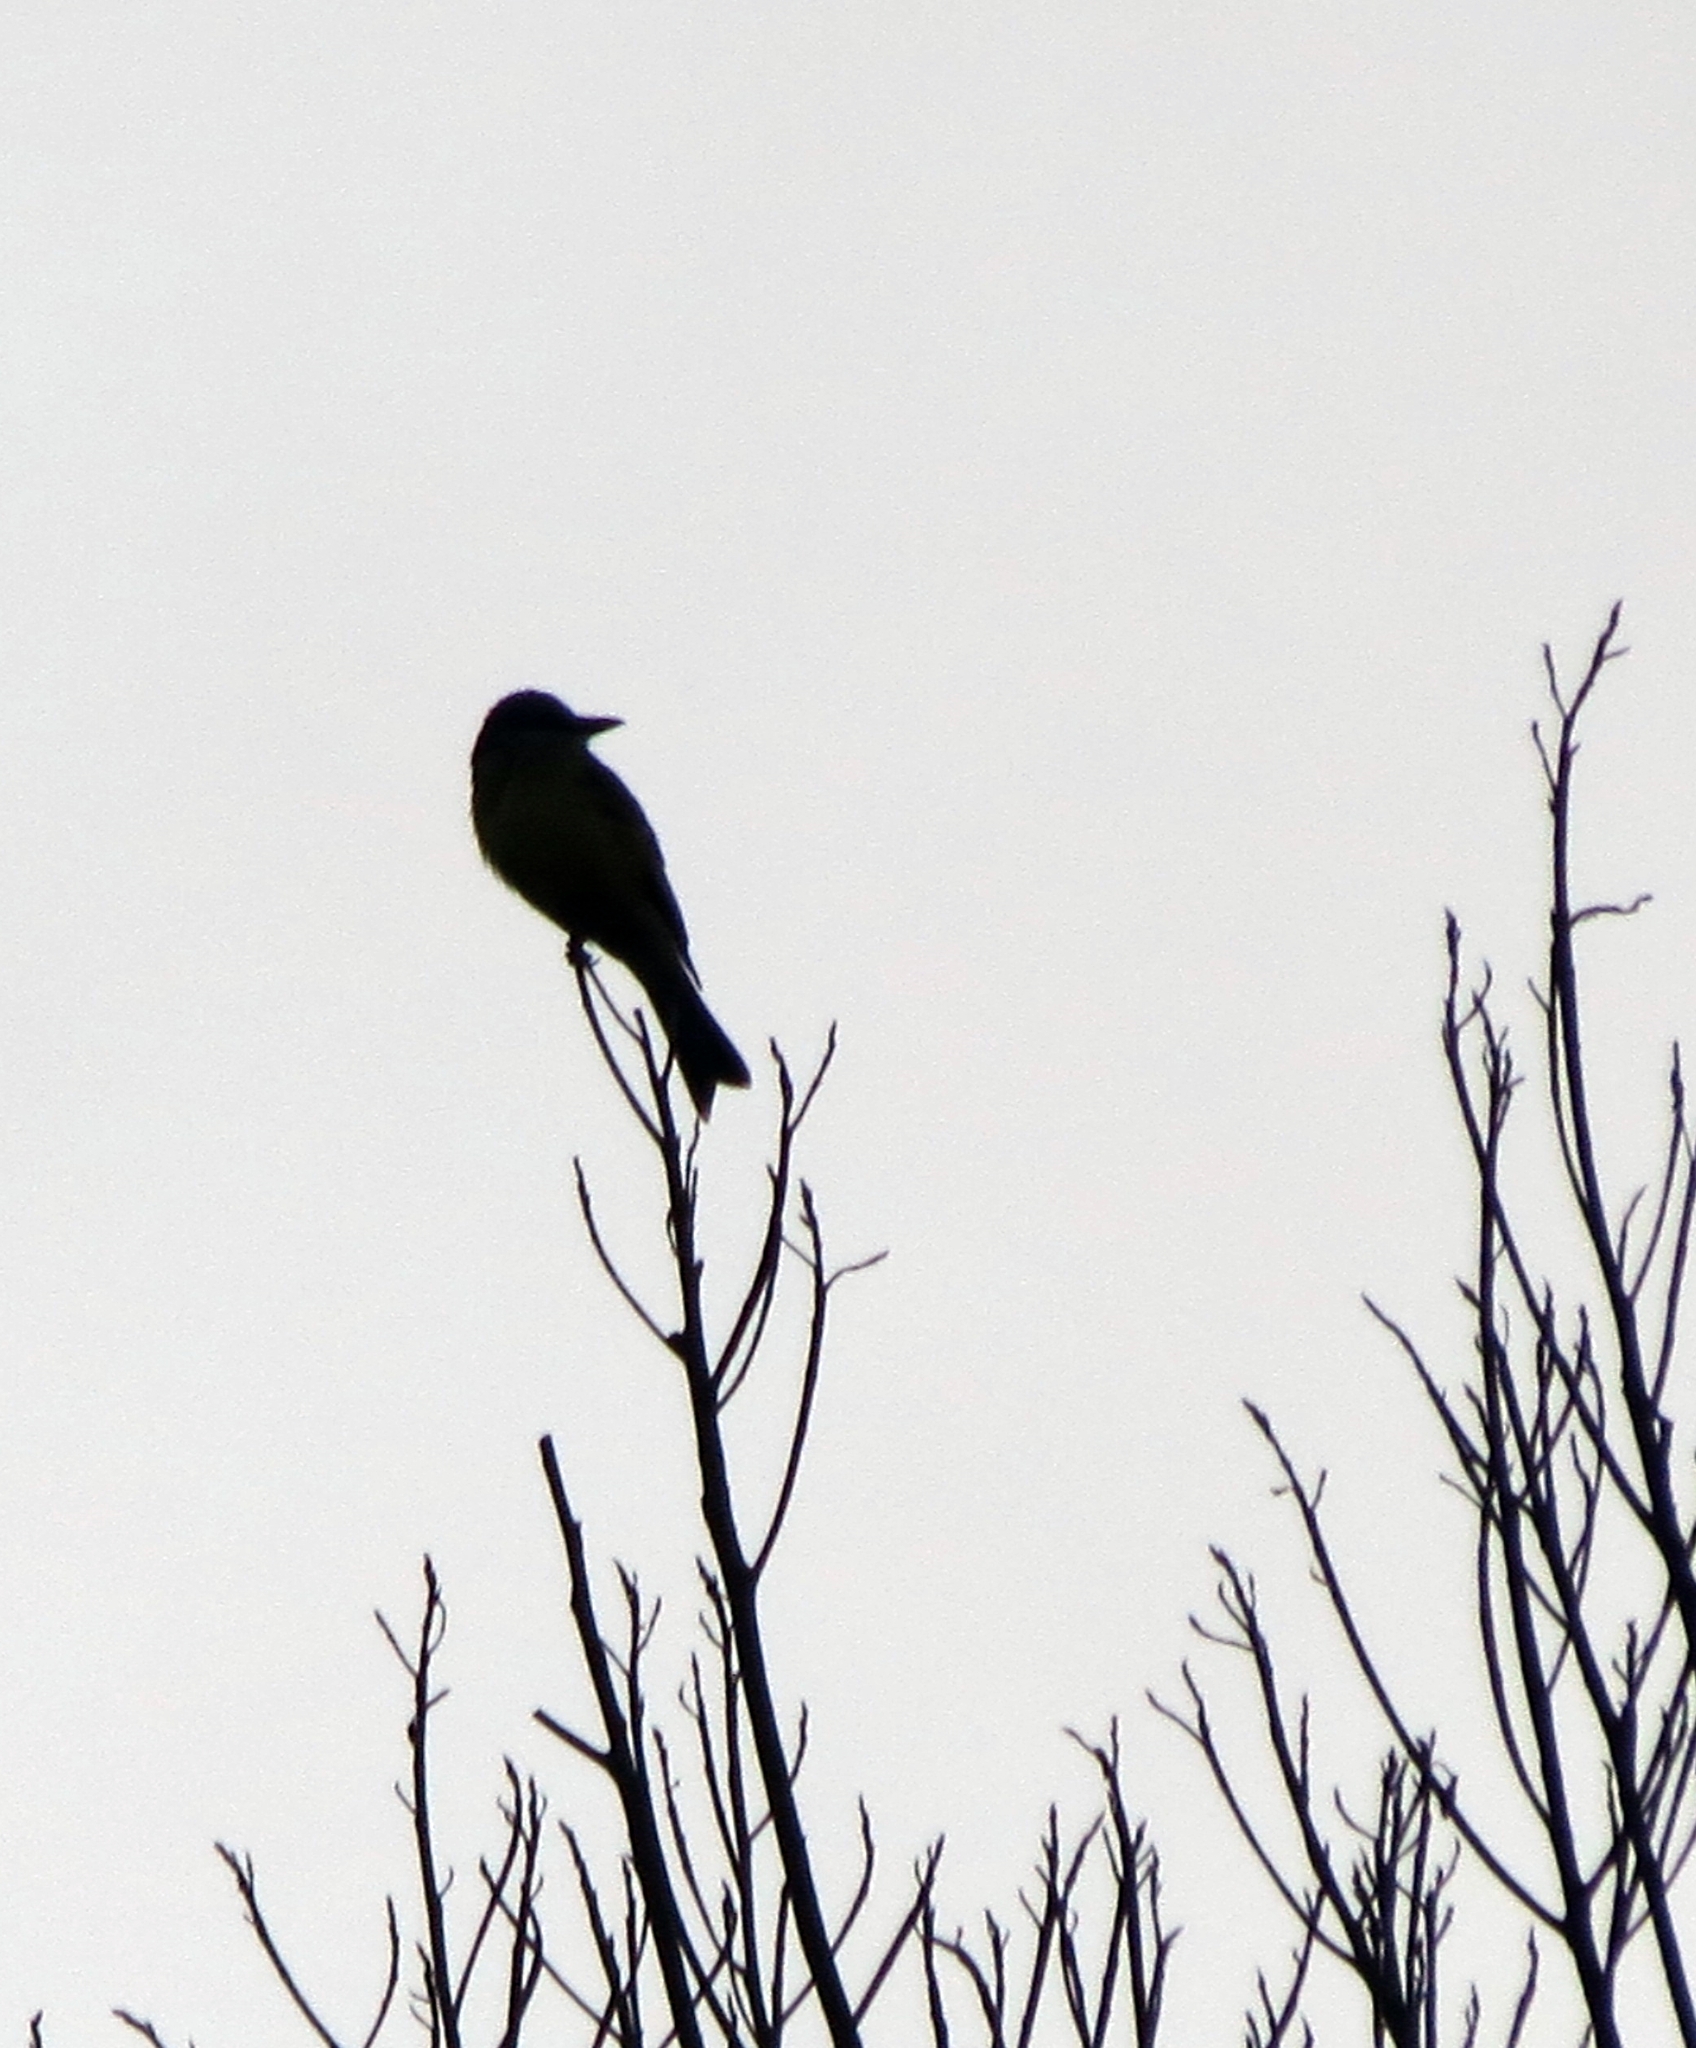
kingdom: Animalia
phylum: Chordata
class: Aves
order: Passeriformes
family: Tyrannidae
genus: Tyrannus
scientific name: Tyrannus melancholicus
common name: Tropical kingbird
